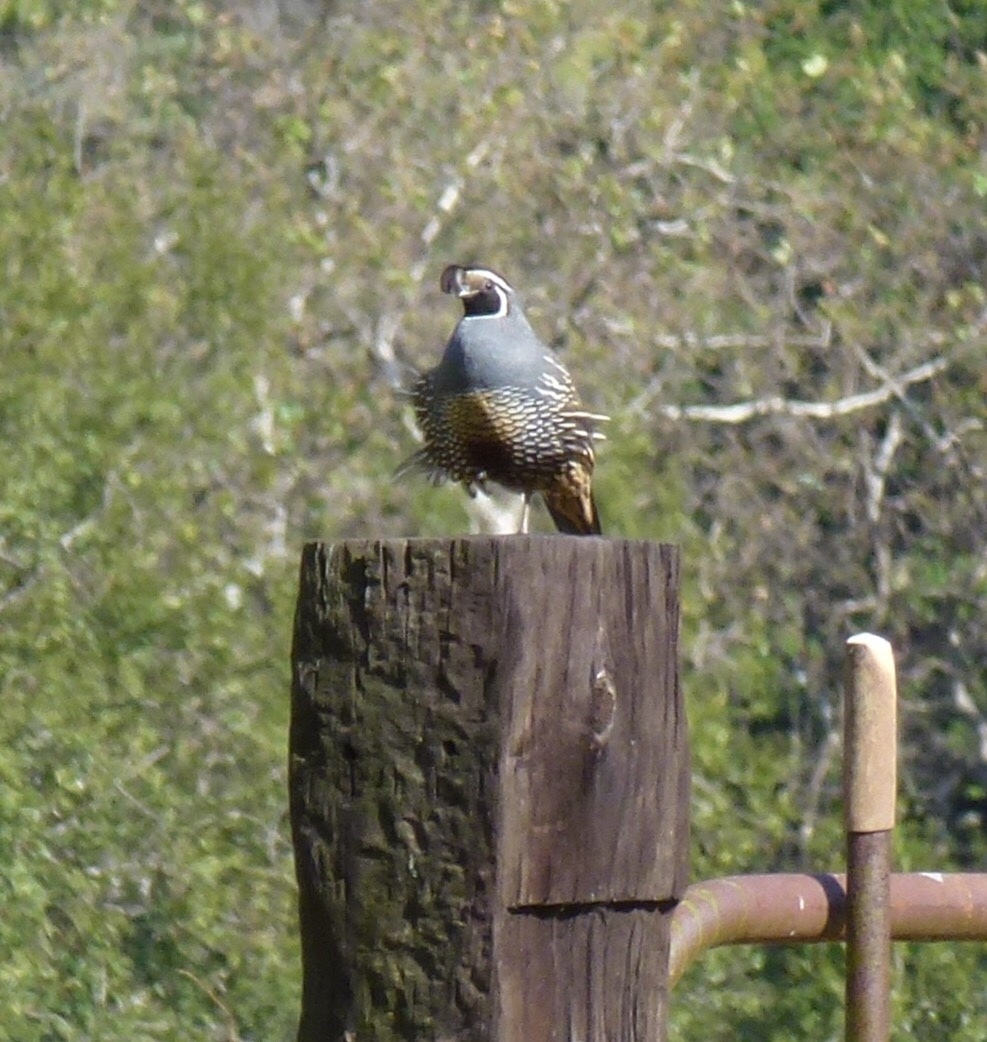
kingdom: Animalia
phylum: Chordata
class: Aves
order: Galliformes
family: Odontophoridae
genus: Callipepla
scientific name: Callipepla californica
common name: California quail
